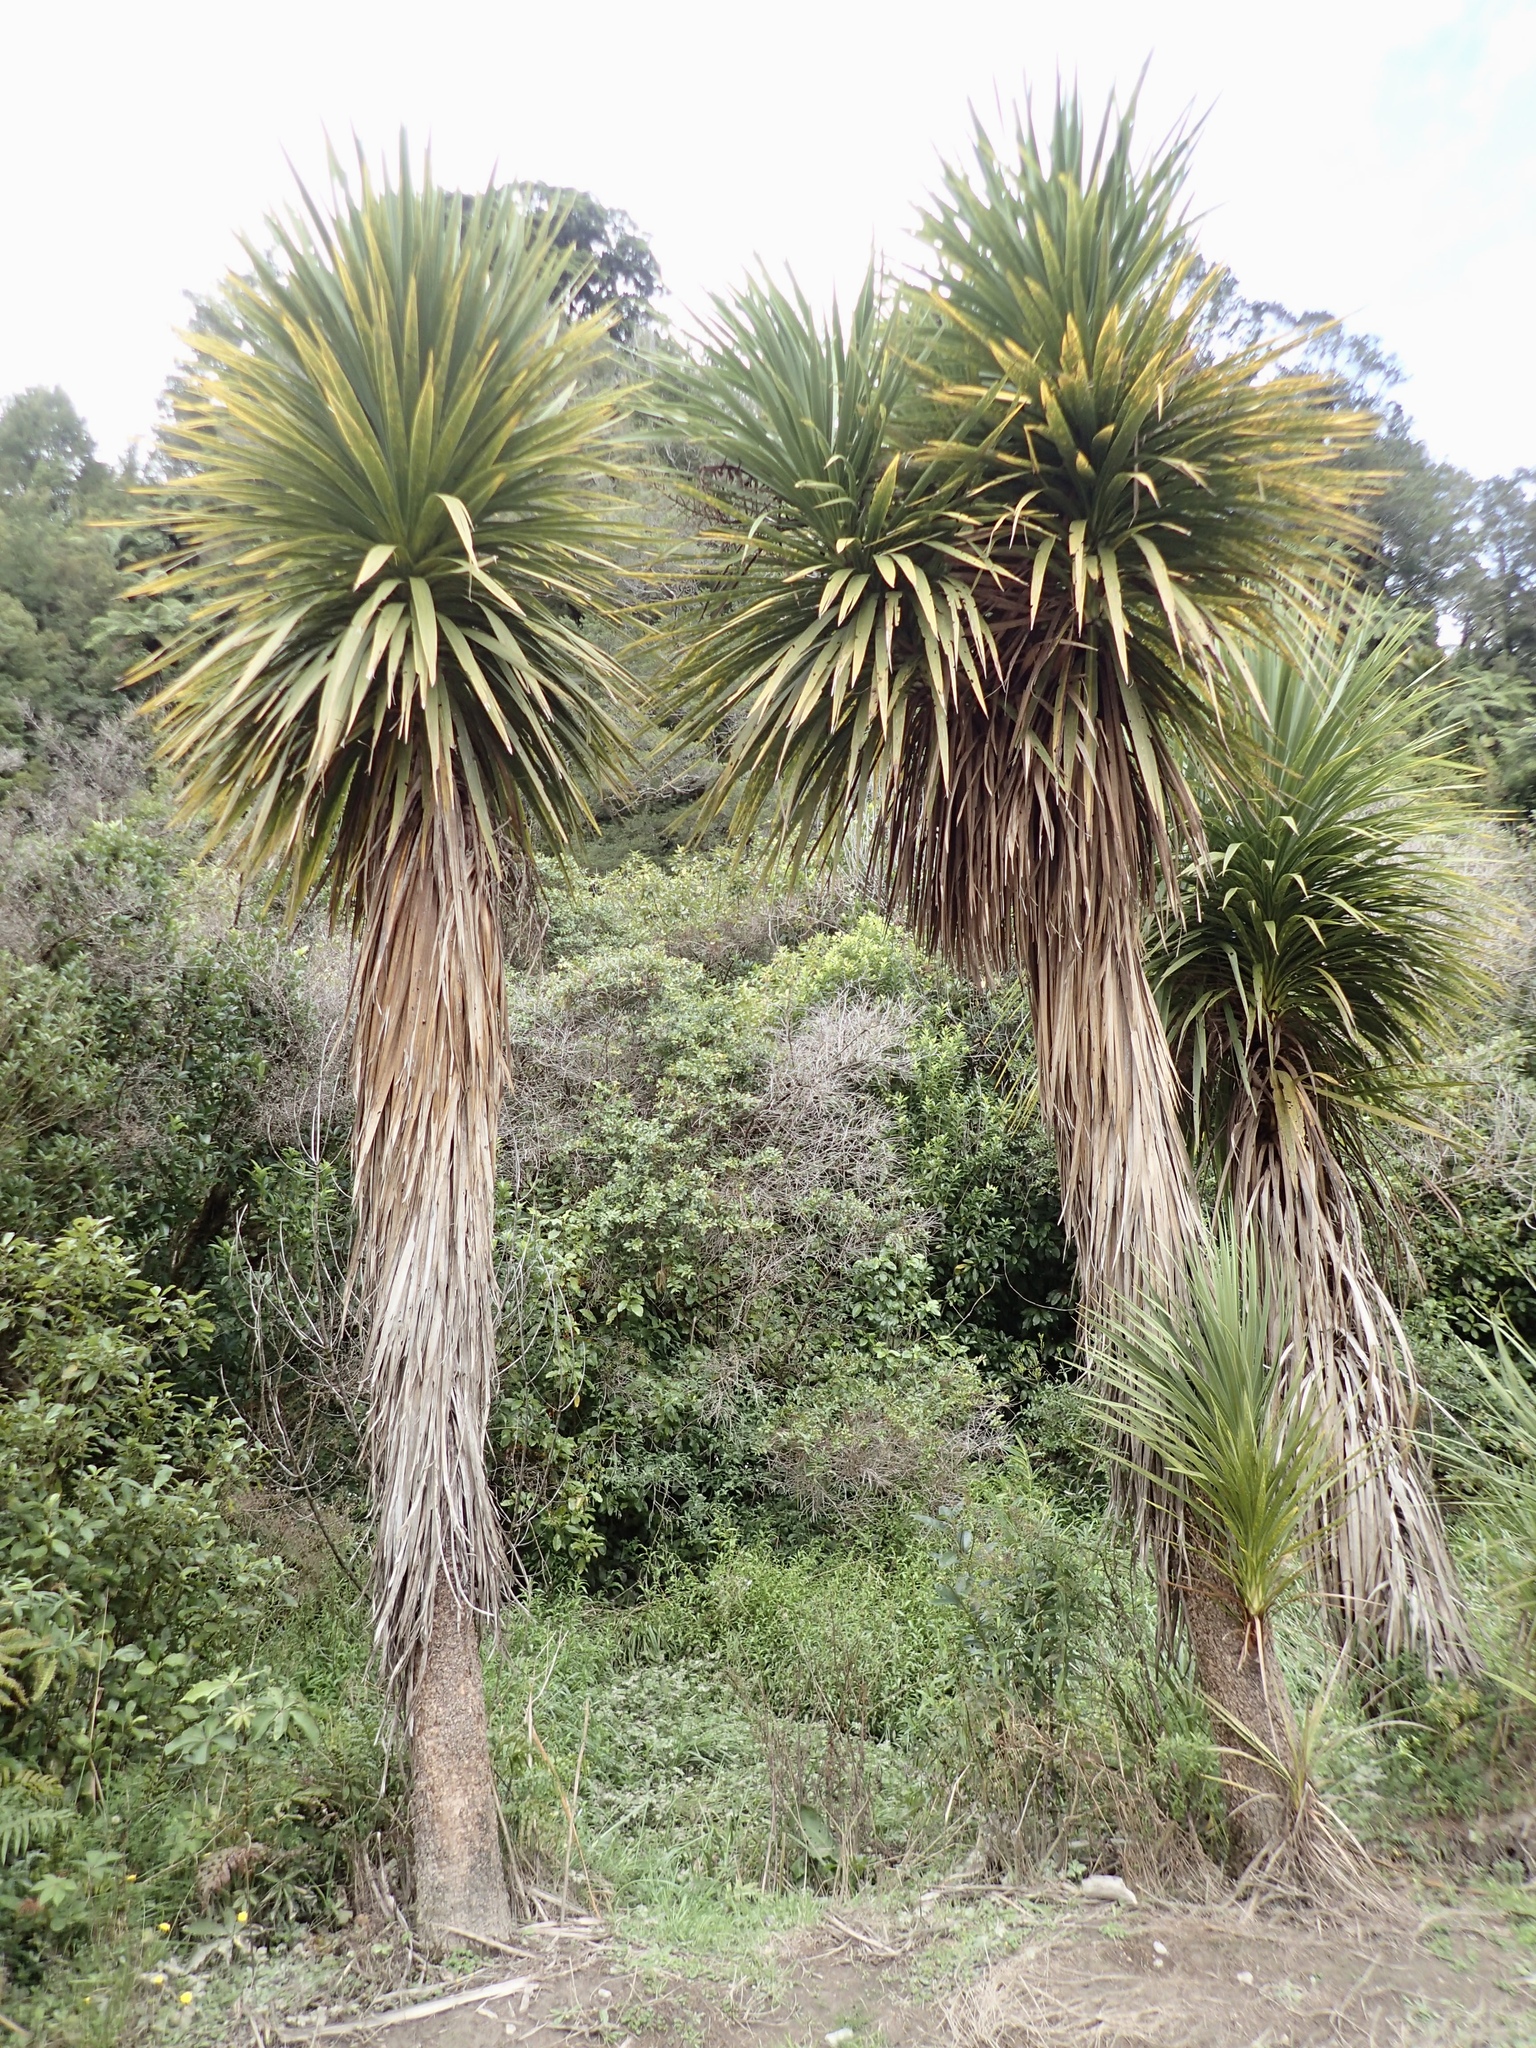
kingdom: Plantae
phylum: Tracheophyta
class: Liliopsida
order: Asparagales
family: Asparagaceae
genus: Cordyline
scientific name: Cordyline australis
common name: Cabbage-palm
